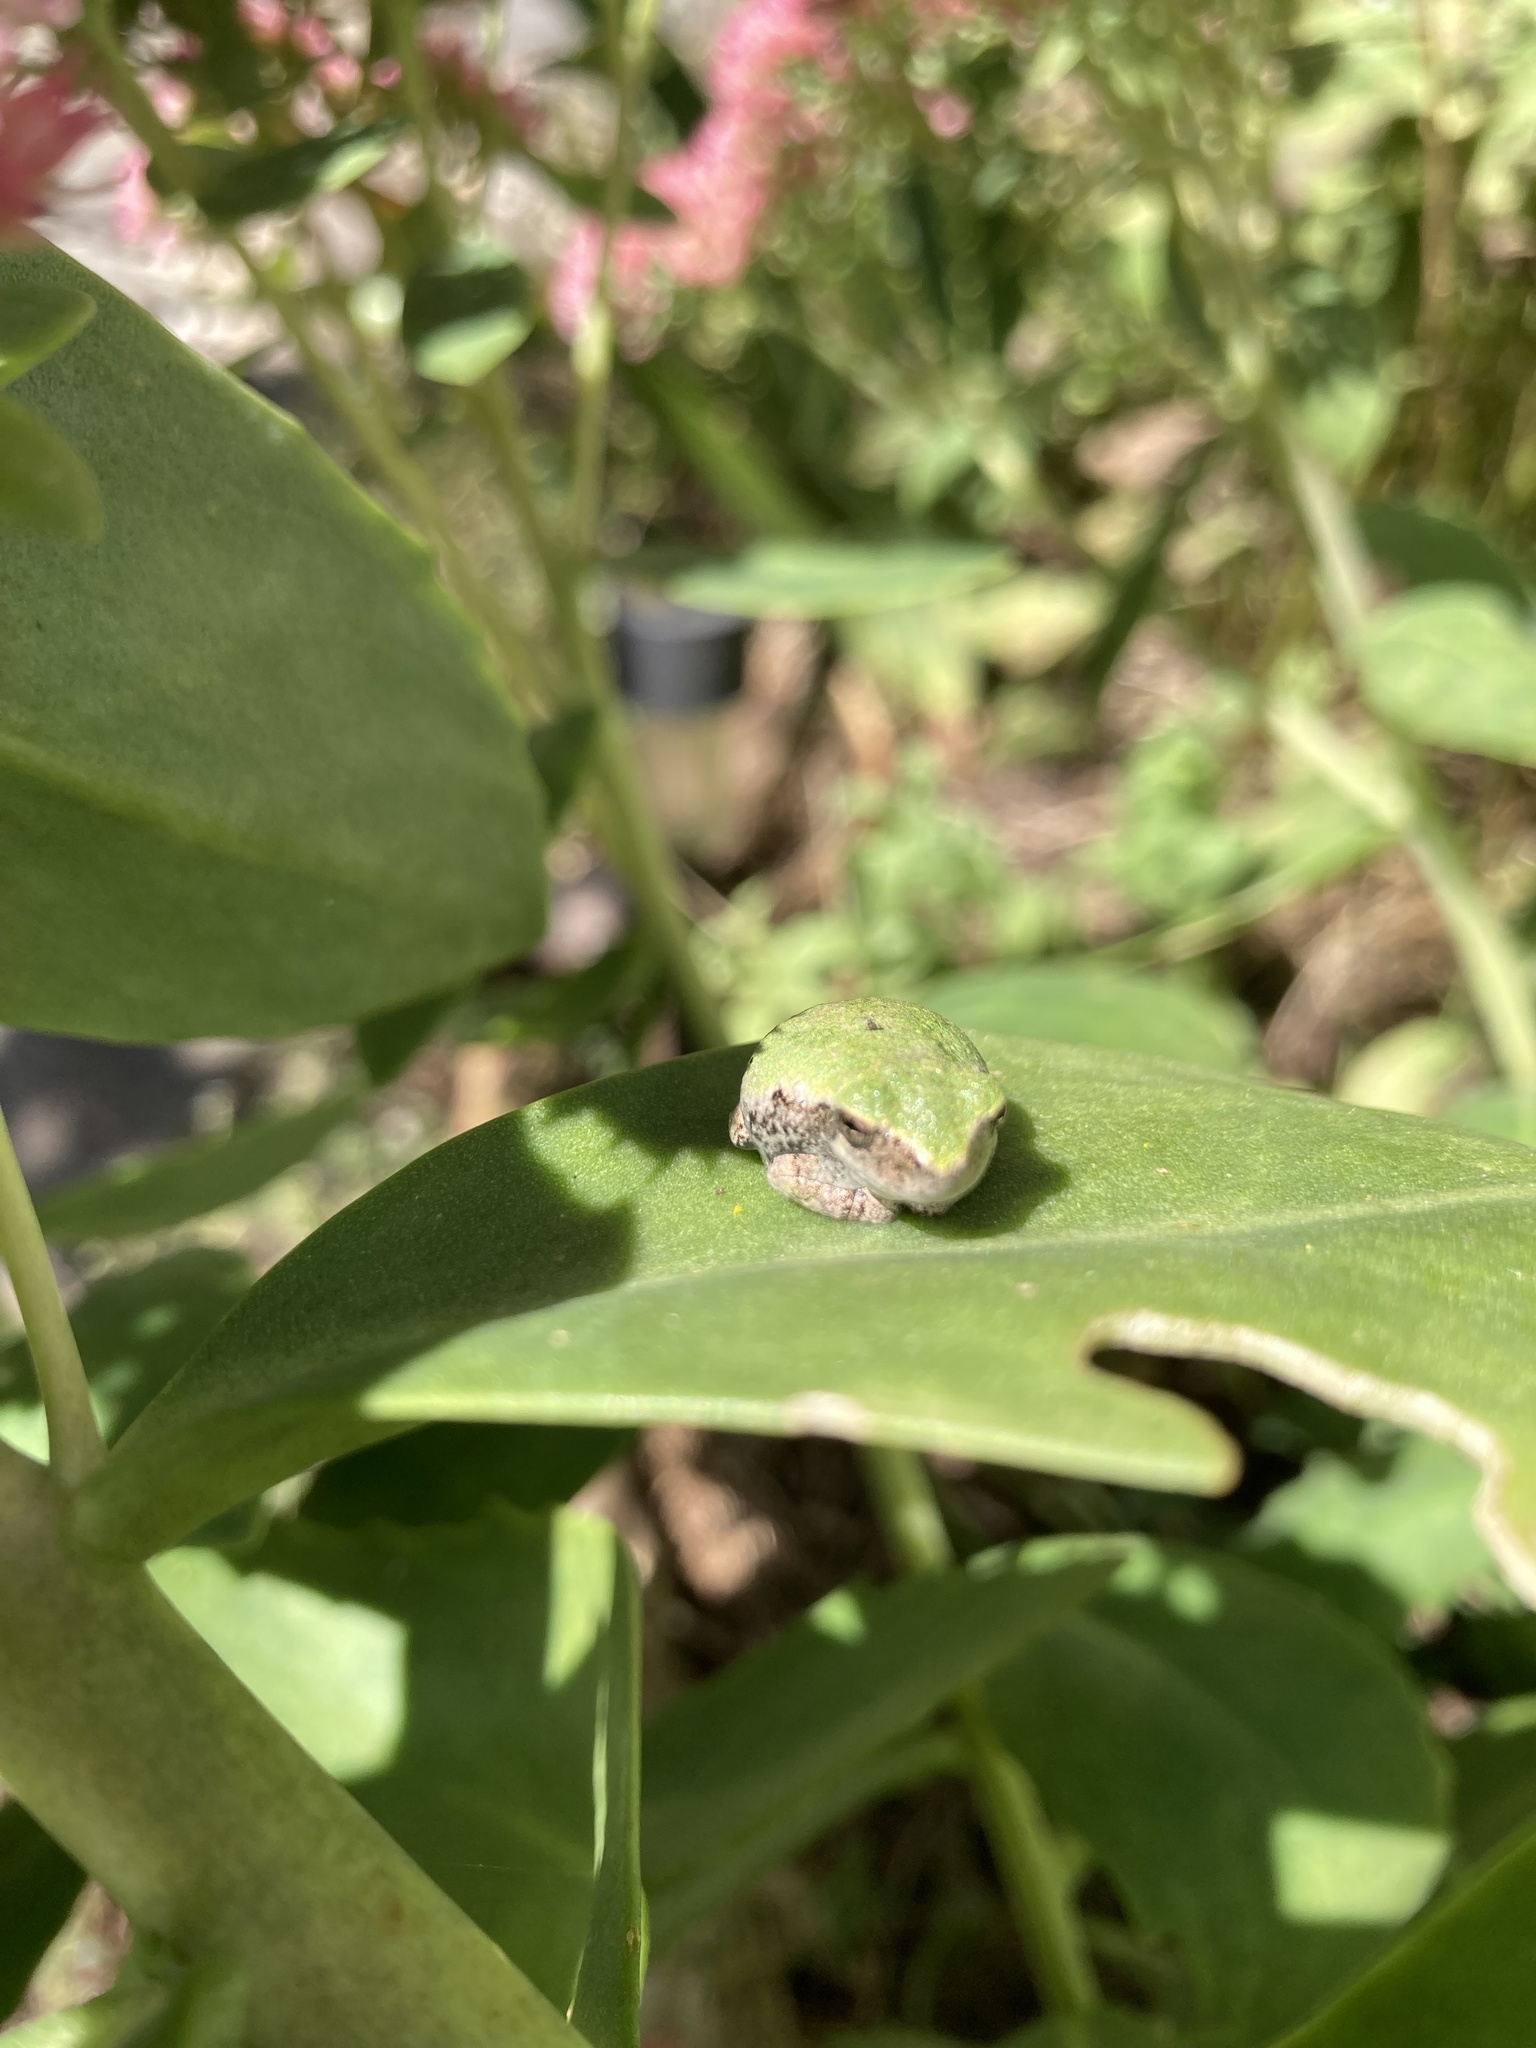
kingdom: Animalia
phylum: Chordata
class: Amphibia
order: Anura
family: Hylidae
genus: Dryophytes
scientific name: Dryophytes versicolor
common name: Gray treefrog
